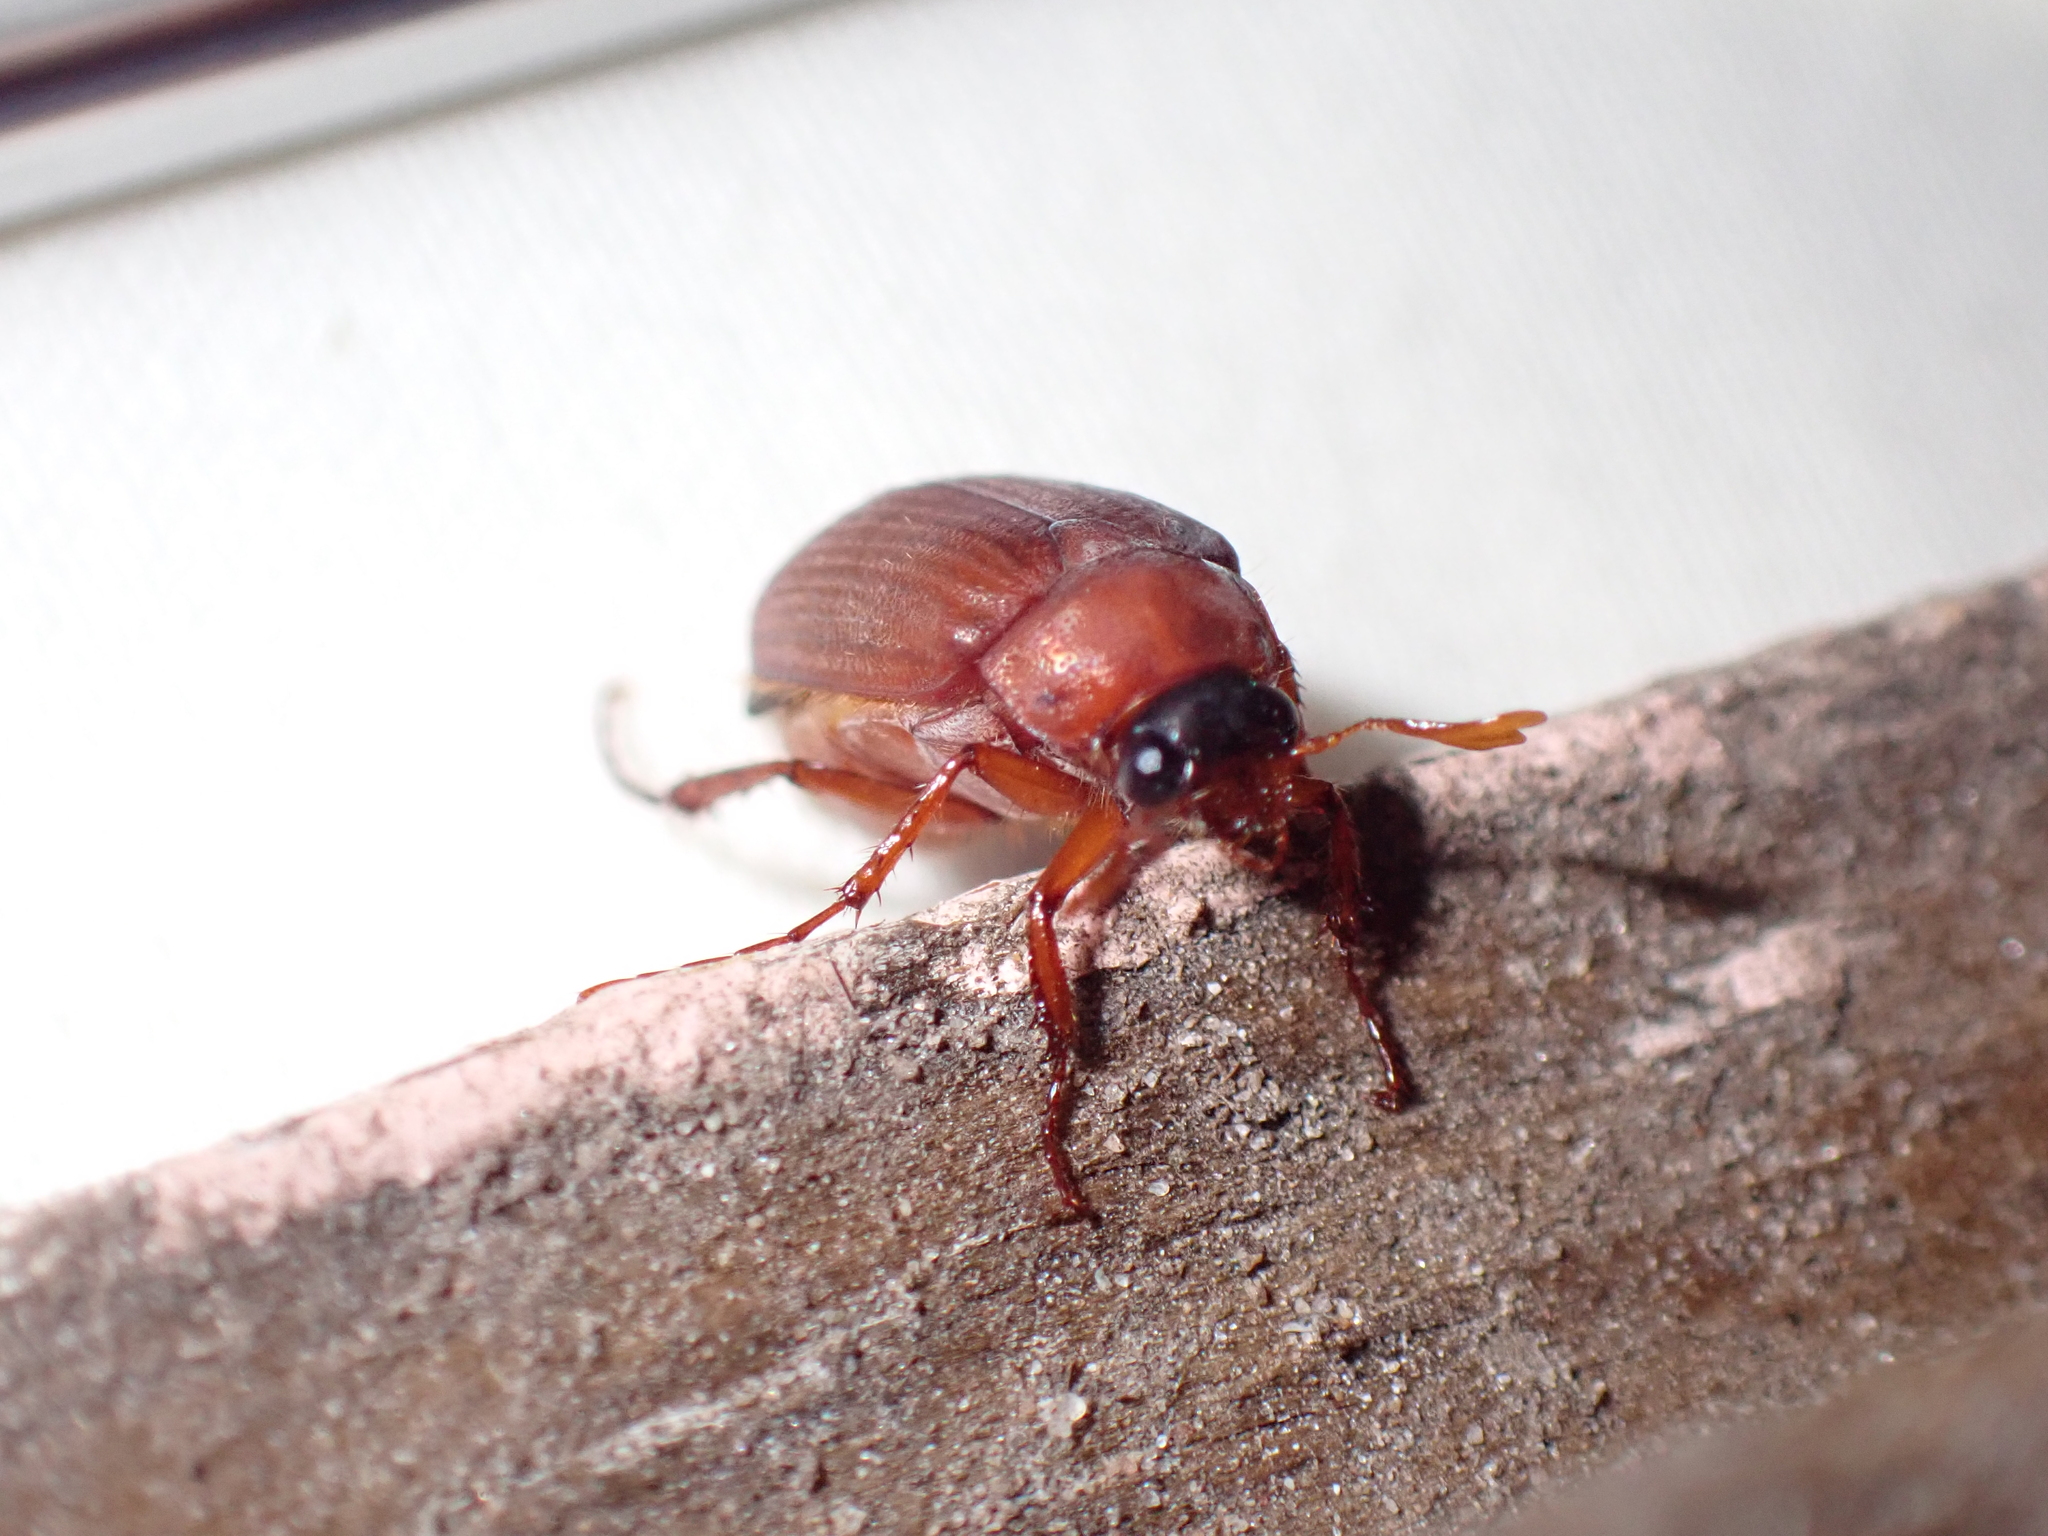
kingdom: Animalia
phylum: Arthropoda
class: Insecta
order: Coleoptera
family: Scarabaeidae
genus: Serica
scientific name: Serica brunnea
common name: Brown chafer
